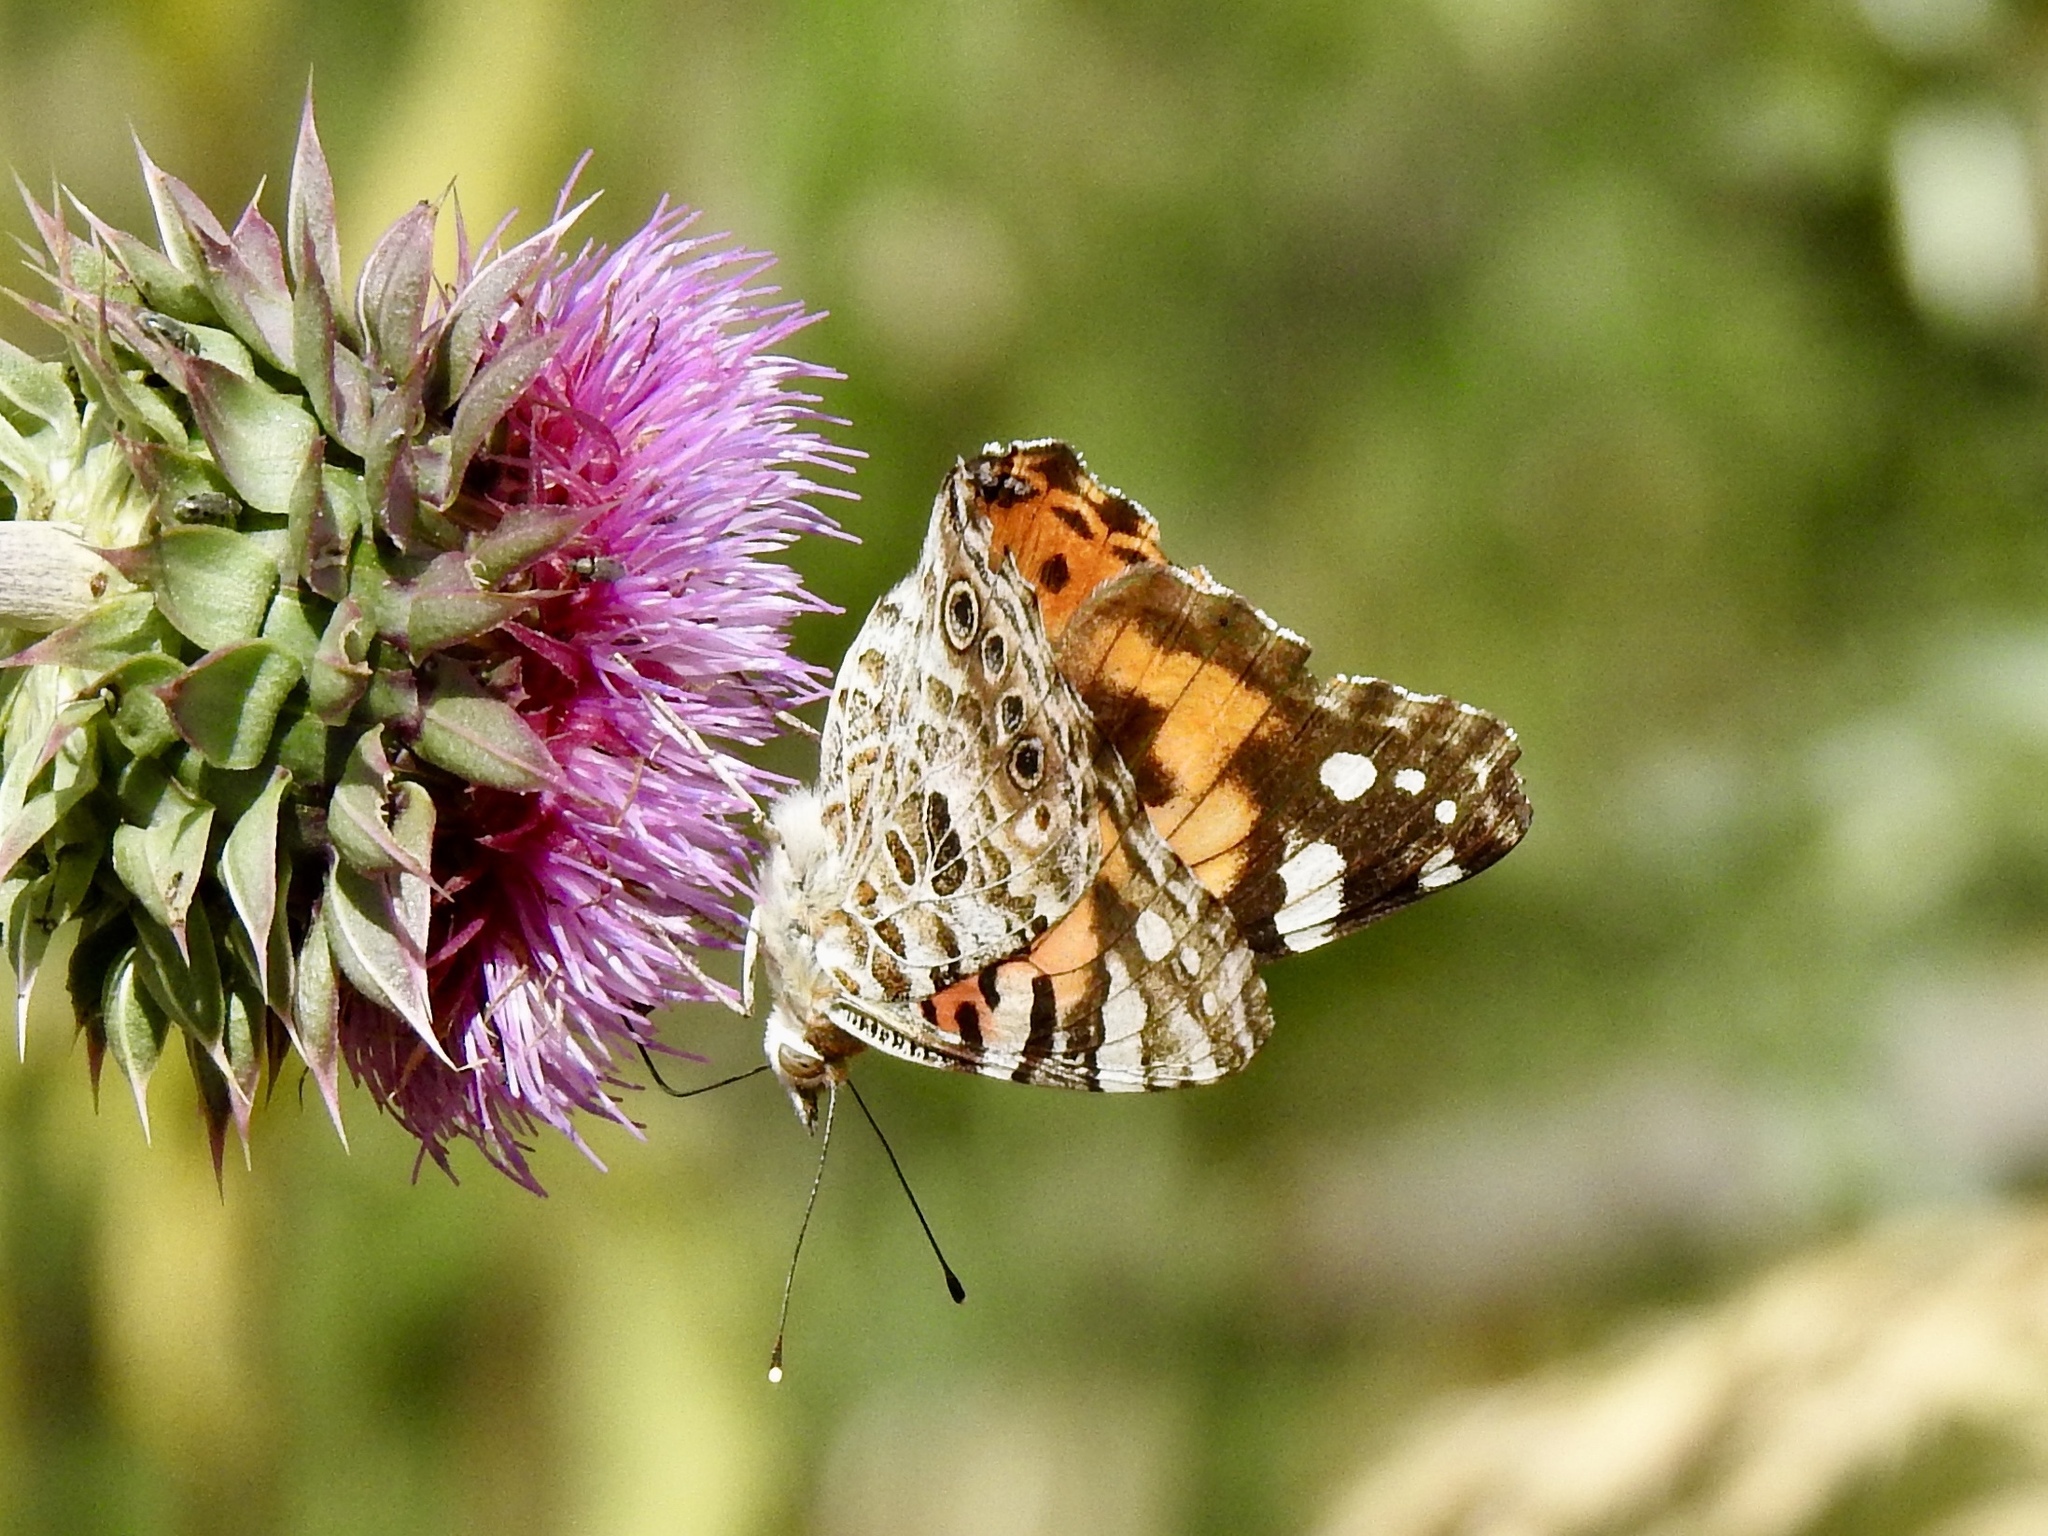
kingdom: Animalia
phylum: Arthropoda
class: Insecta
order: Lepidoptera
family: Nymphalidae
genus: Vanessa
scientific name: Vanessa cardui
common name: Painted lady
